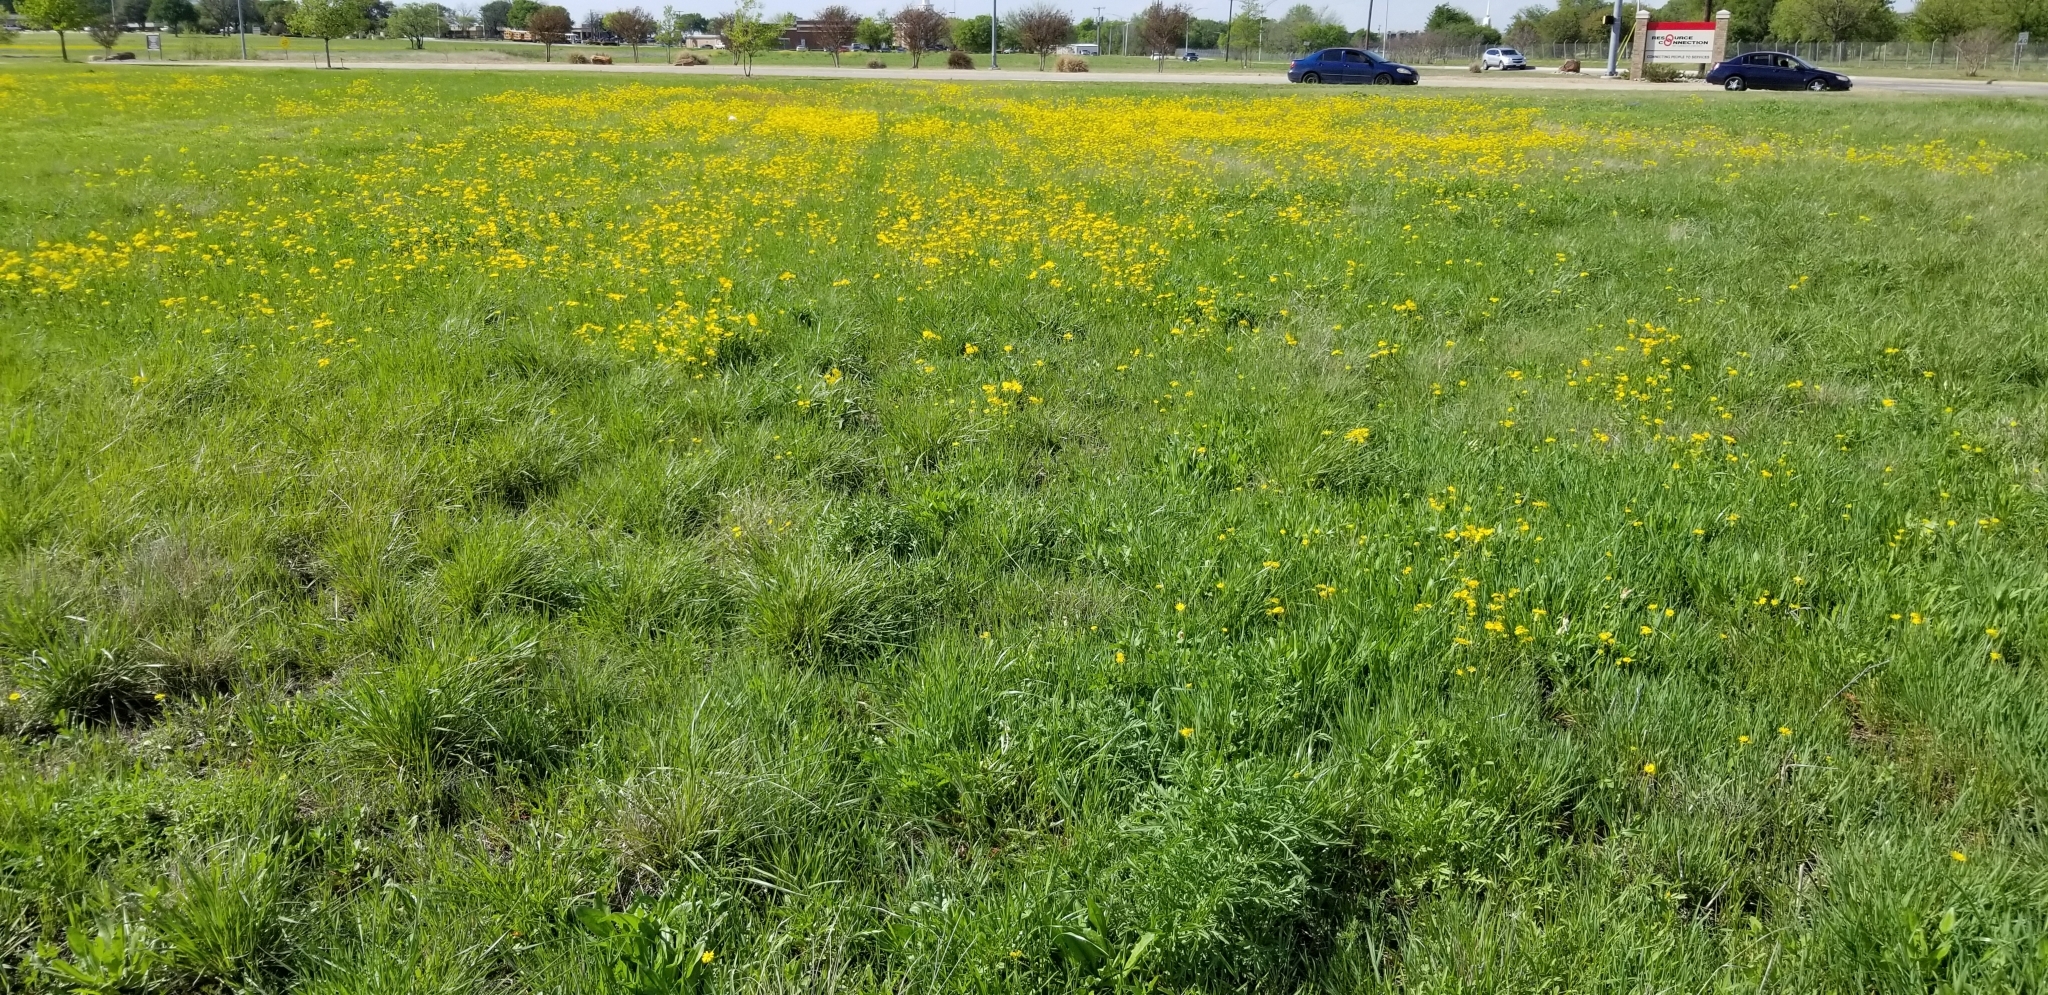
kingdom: Plantae
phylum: Tracheophyta
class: Magnoliopsida
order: Asterales
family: Asteraceae
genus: Packera
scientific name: Packera tampicana
